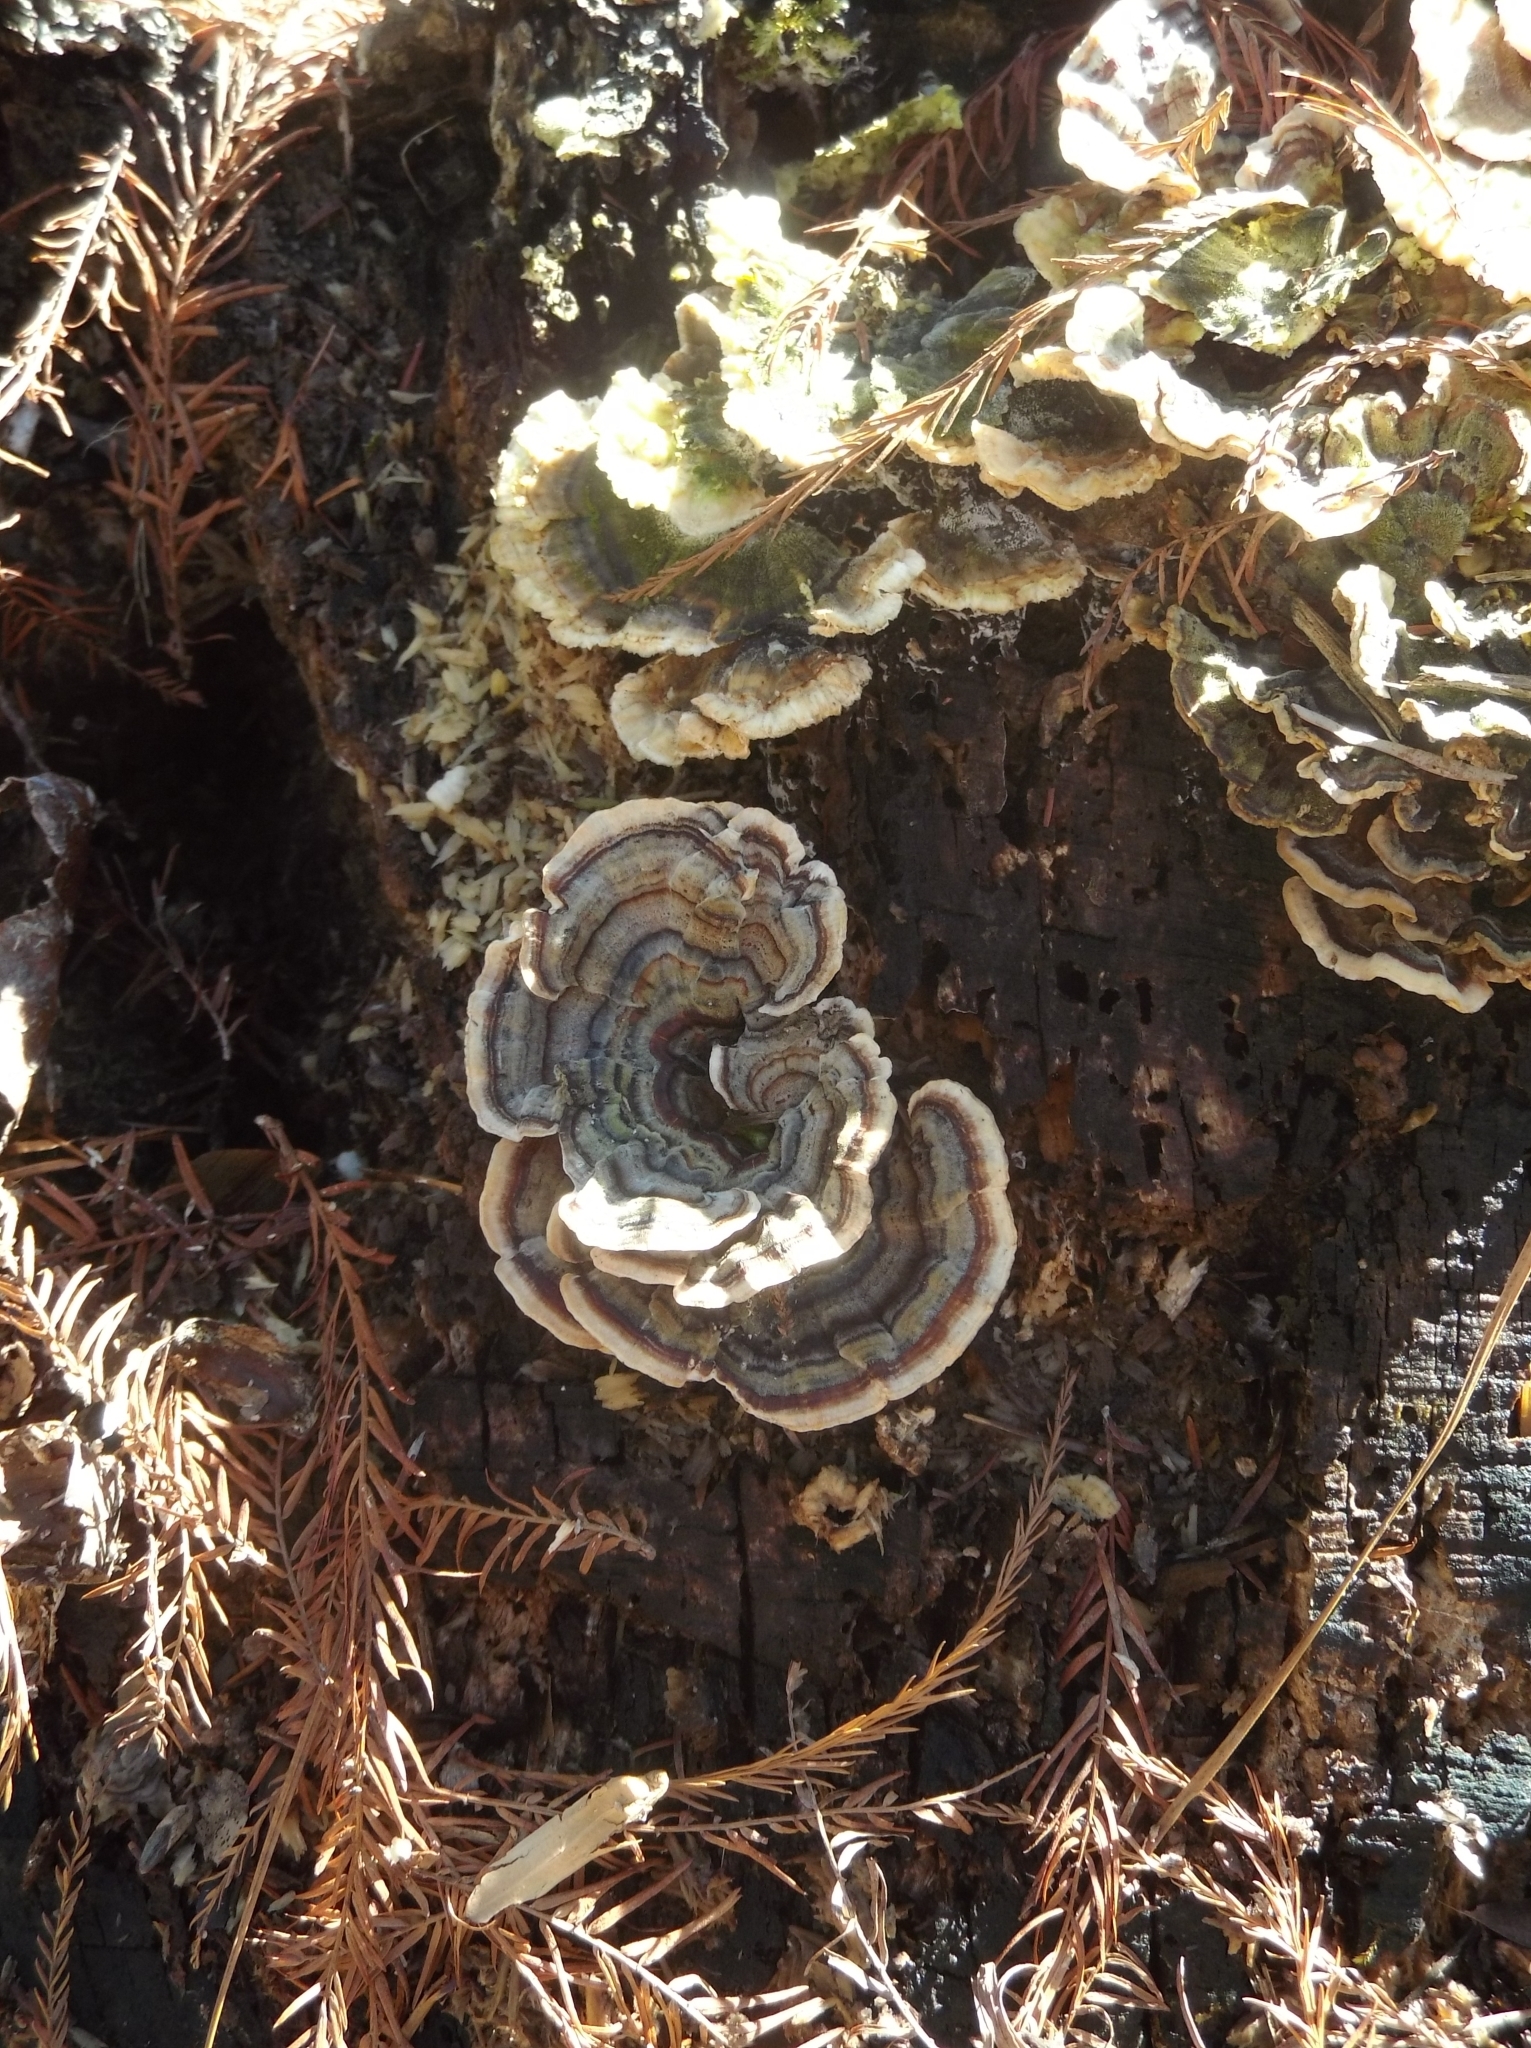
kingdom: Fungi
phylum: Basidiomycota
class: Agaricomycetes
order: Polyporales
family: Polyporaceae
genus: Trametes
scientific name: Trametes versicolor
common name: Turkeytail
